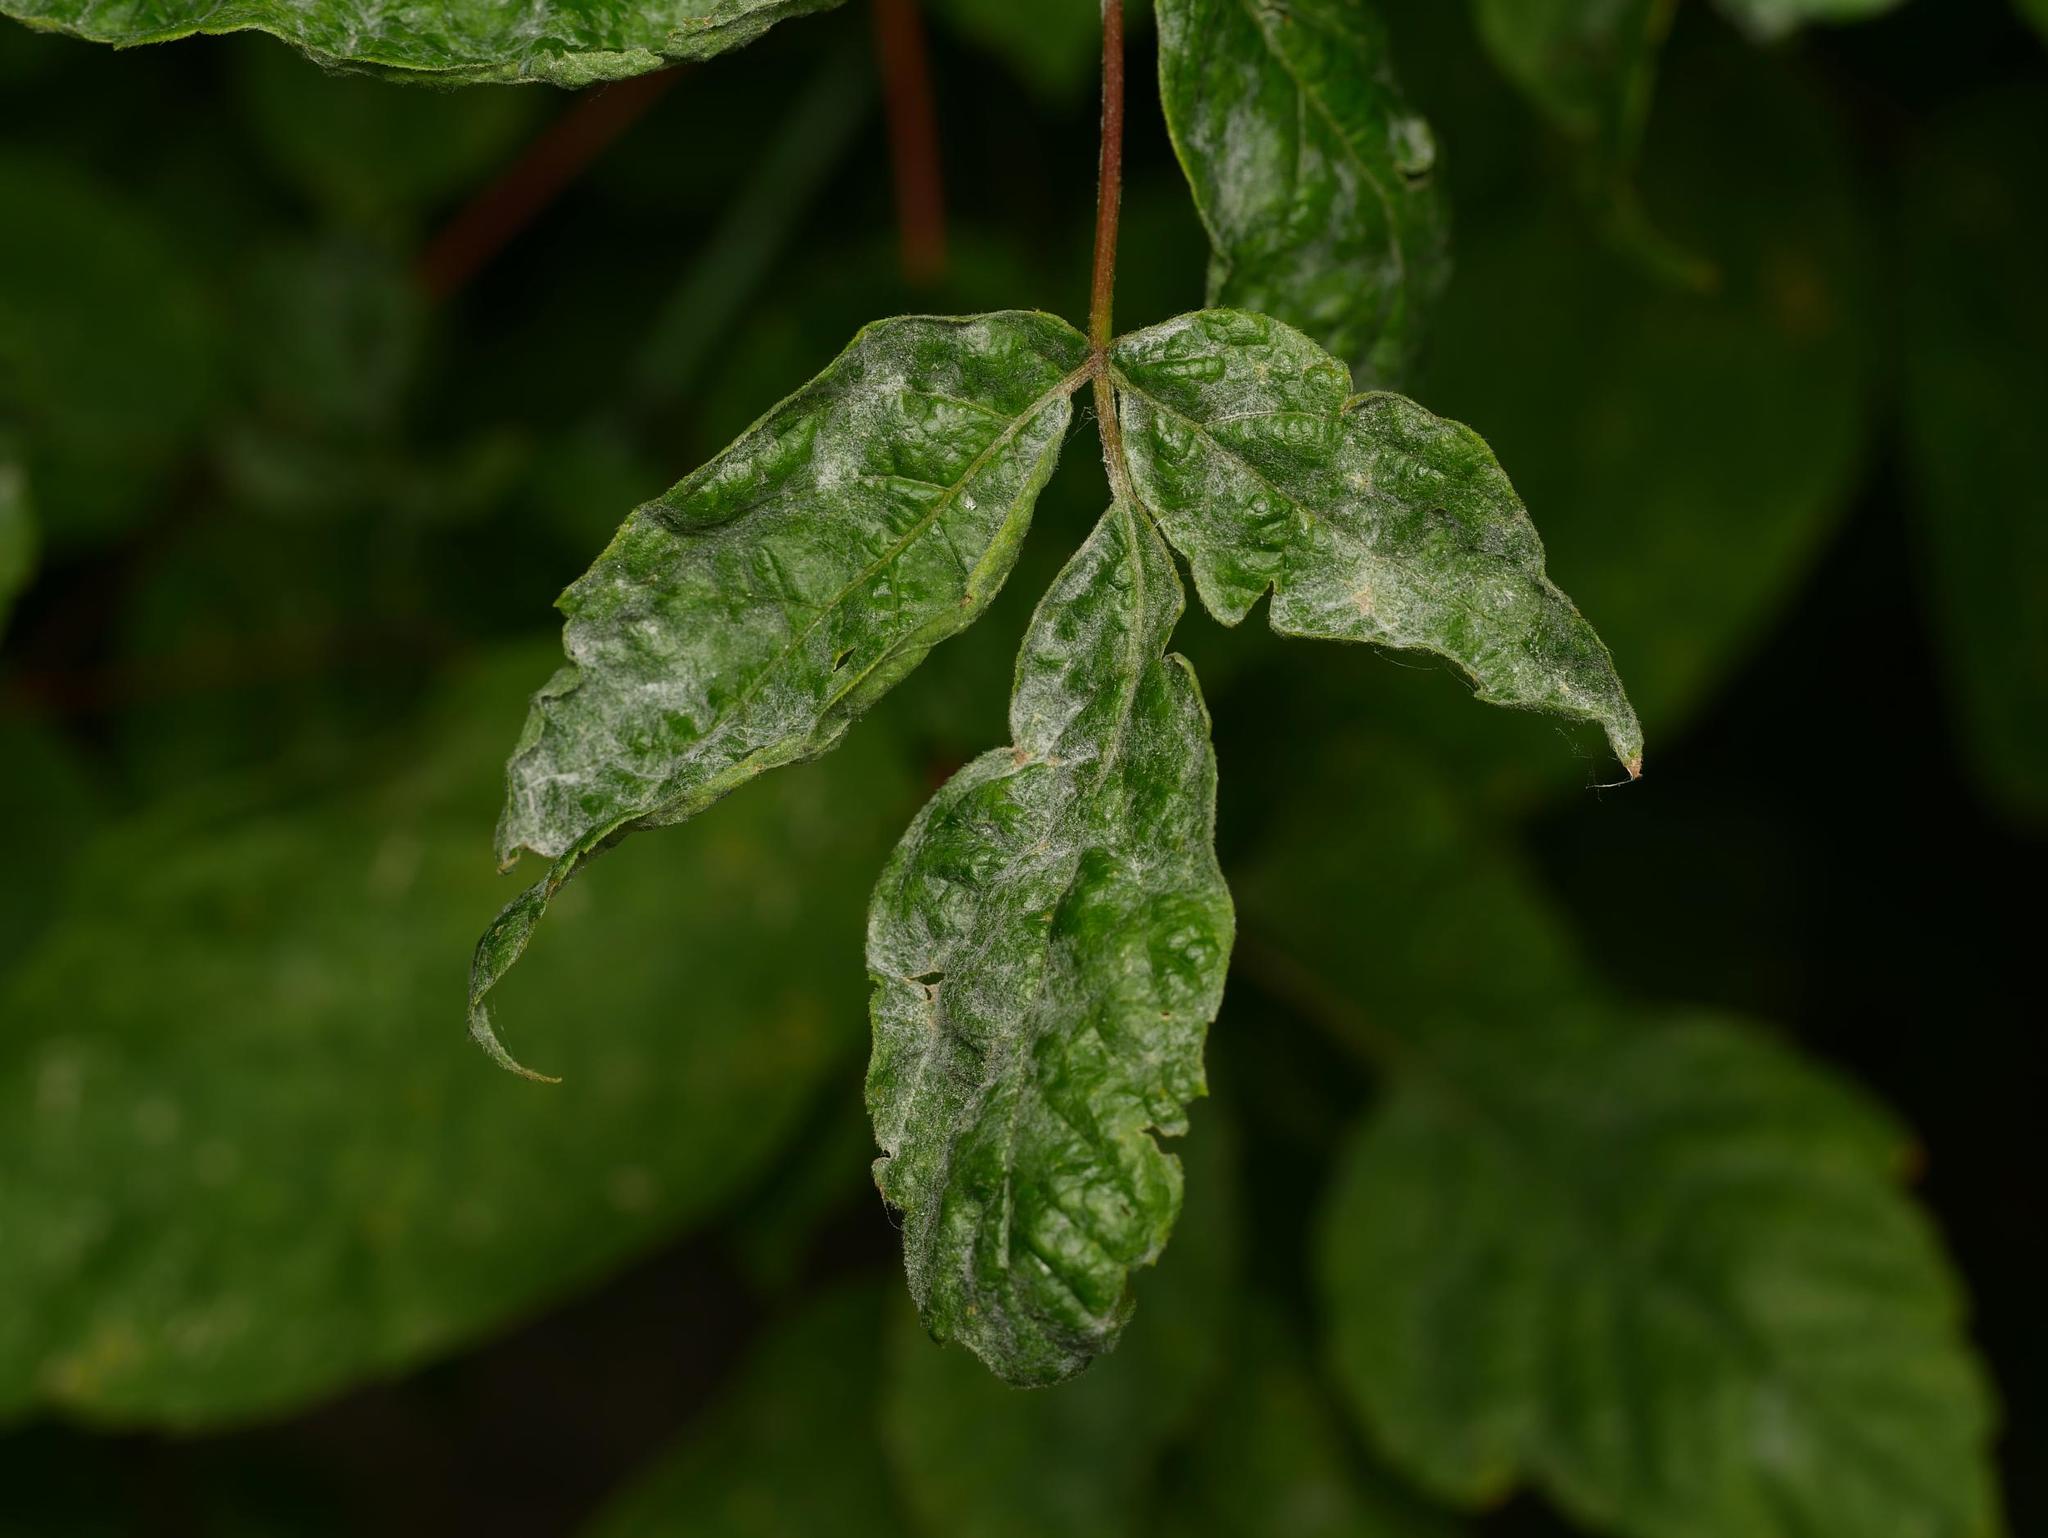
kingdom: Plantae
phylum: Tracheophyta
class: Magnoliopsida
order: Sapindales
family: Sapindaceae
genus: Acer
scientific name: Acer negundo
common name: Ashleaf maple
